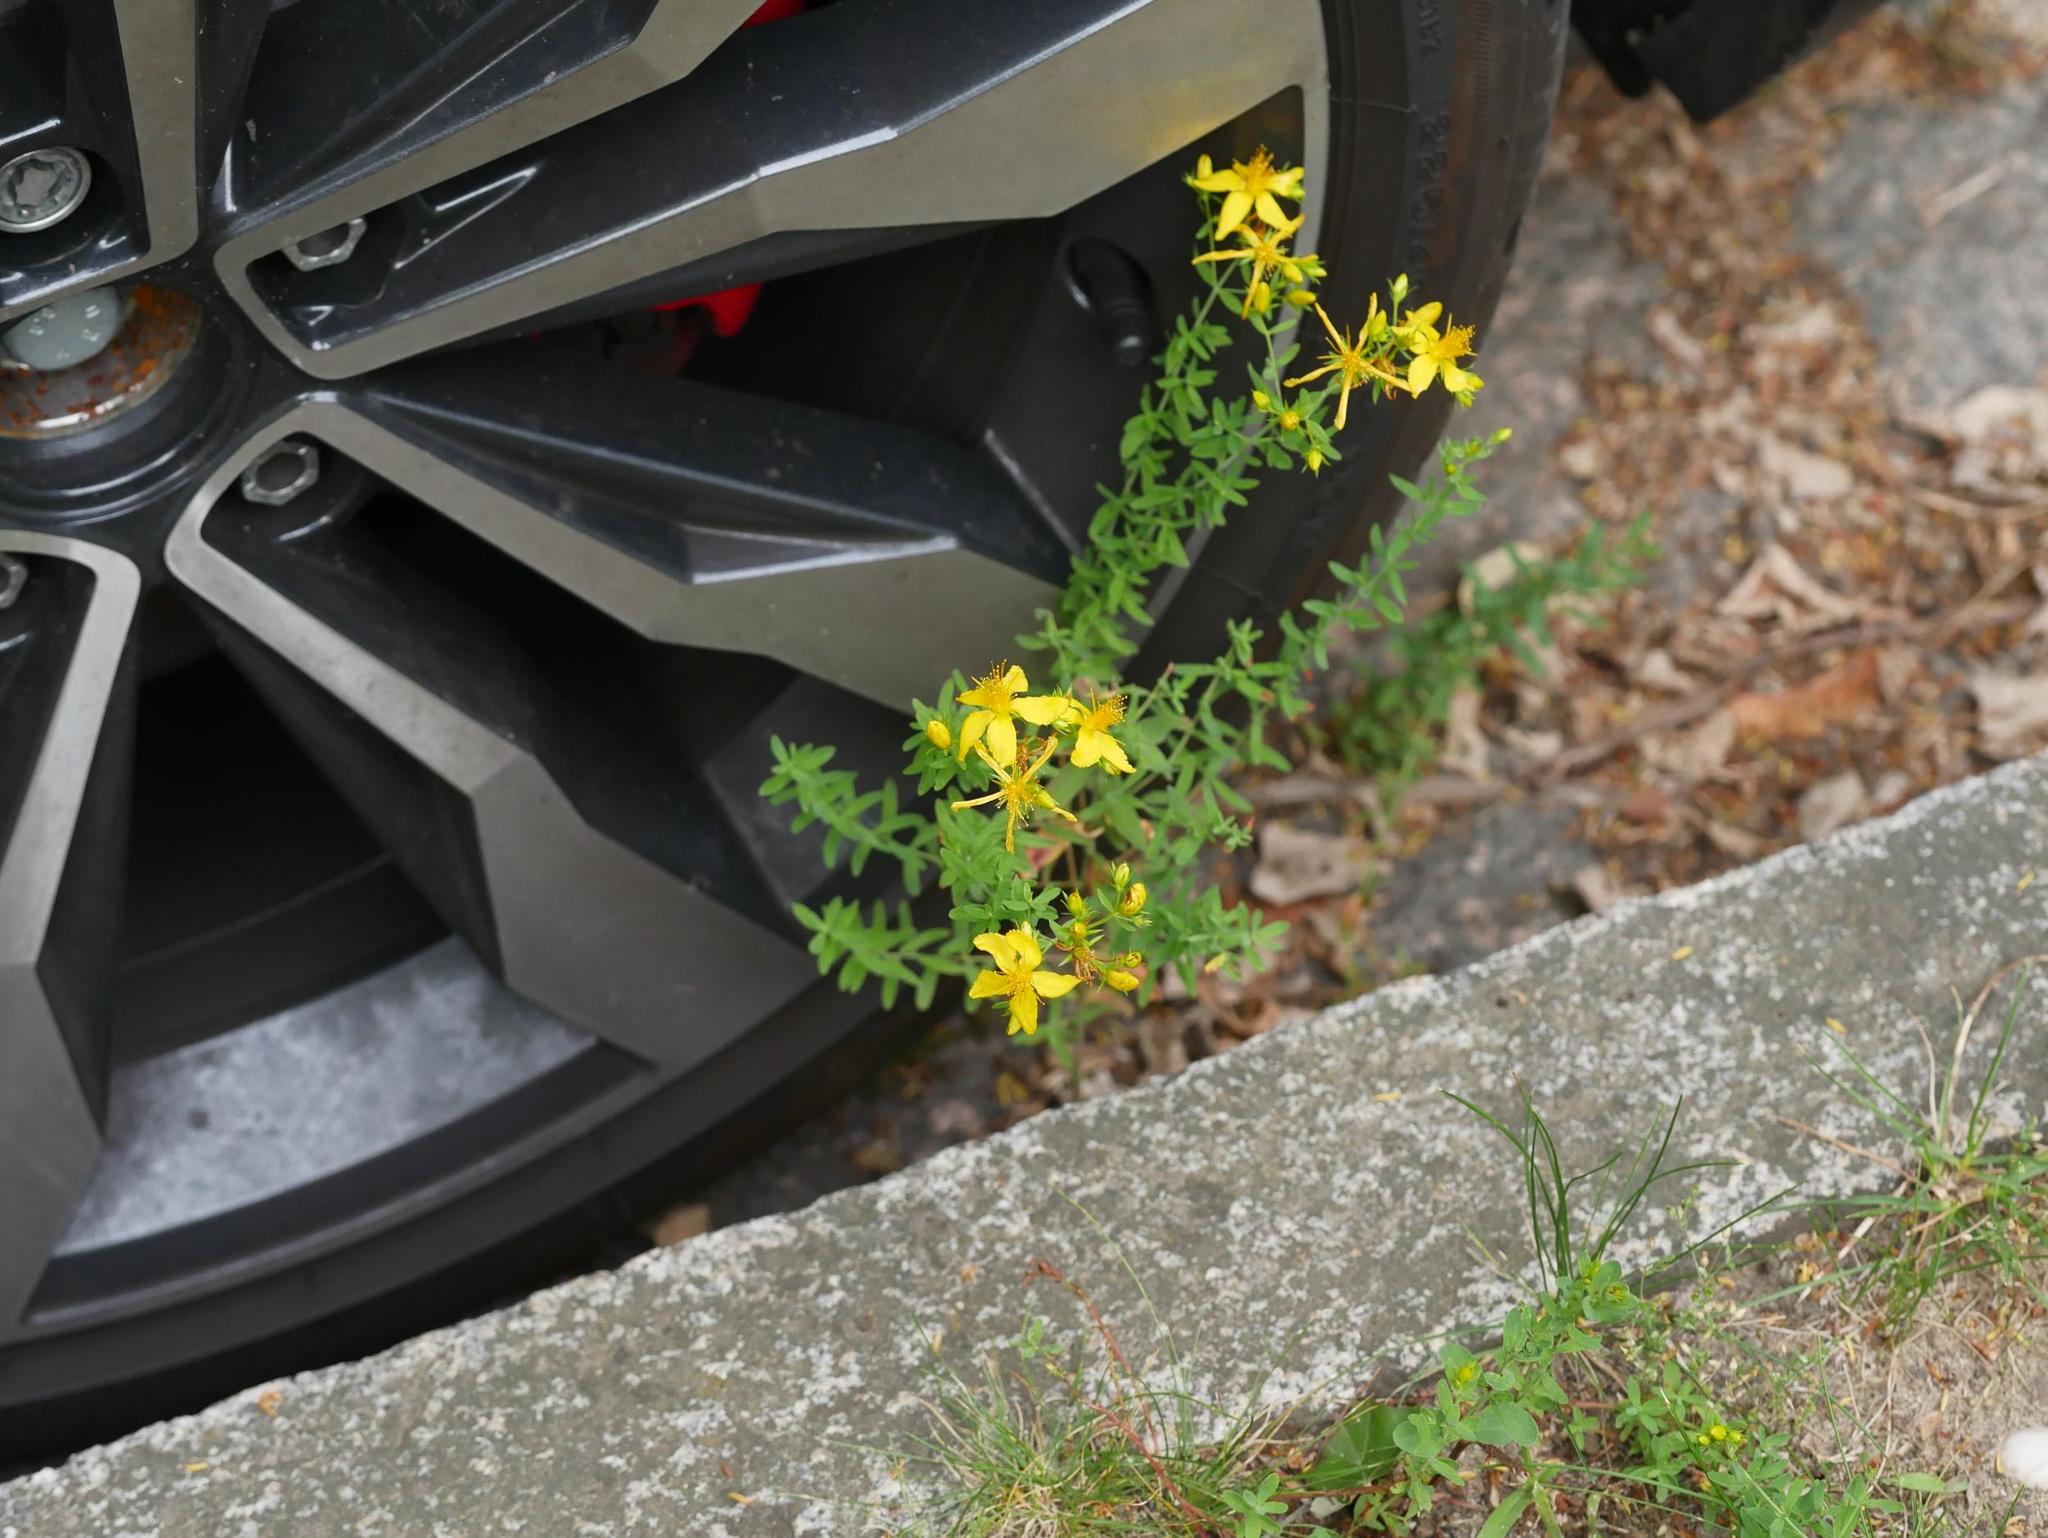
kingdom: Plantae
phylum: Tracheophyta
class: Magnoliopsida
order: Malpighiales
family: Hypericaceae
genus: Hypericum
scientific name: Hypericum perforatum
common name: Common st. johnswort
